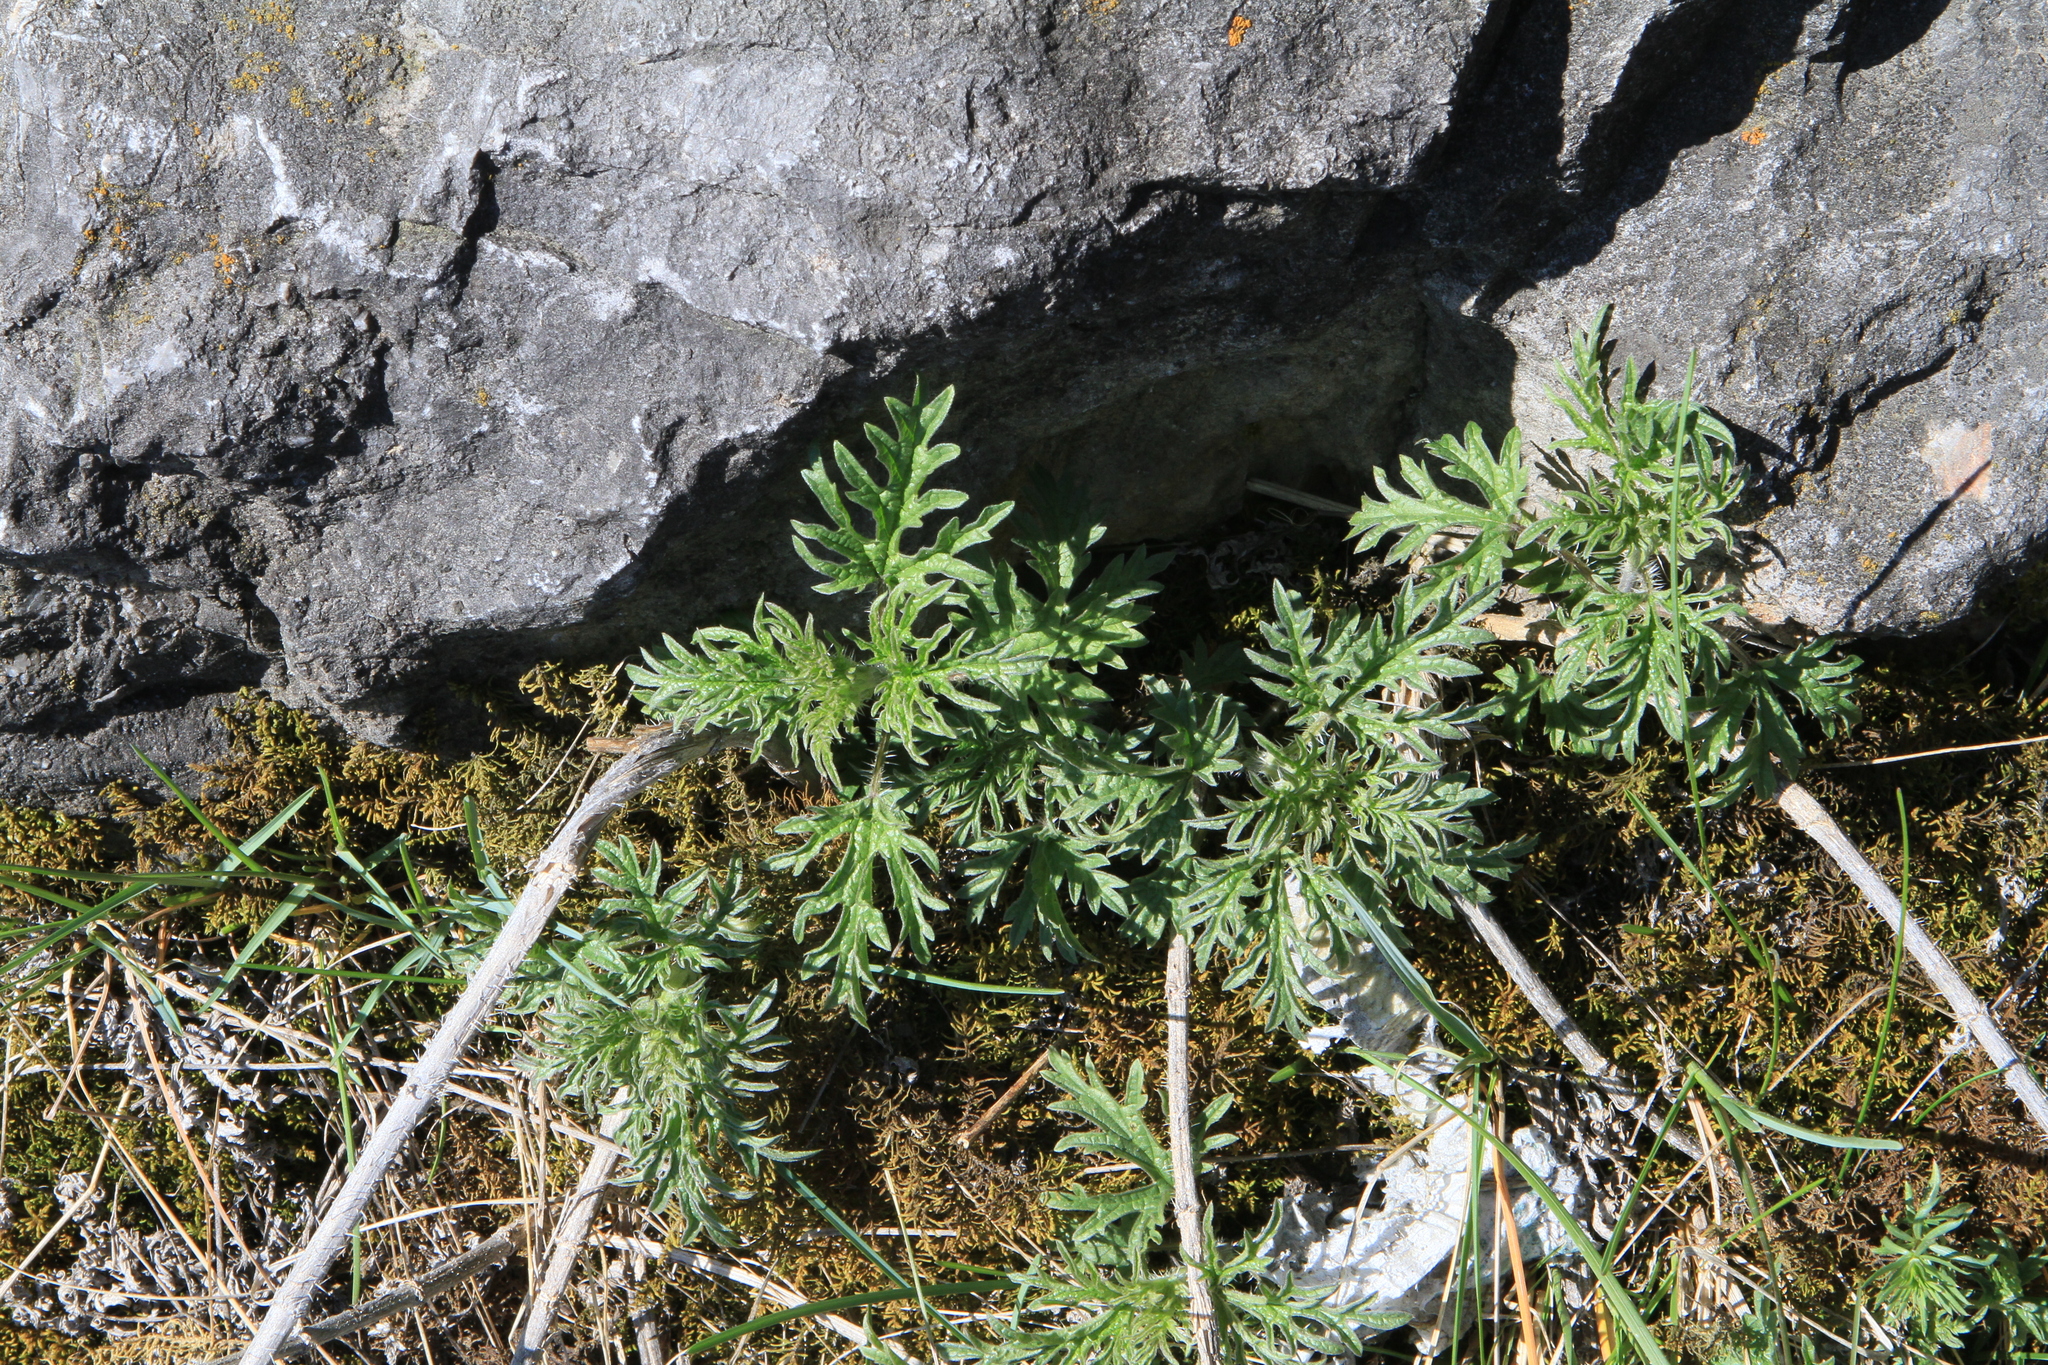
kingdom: Plantae
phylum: Tracheophyta
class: Magnoliopsida
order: Rosales
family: Urticaceae
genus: Urtica
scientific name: Urtica cannabina
